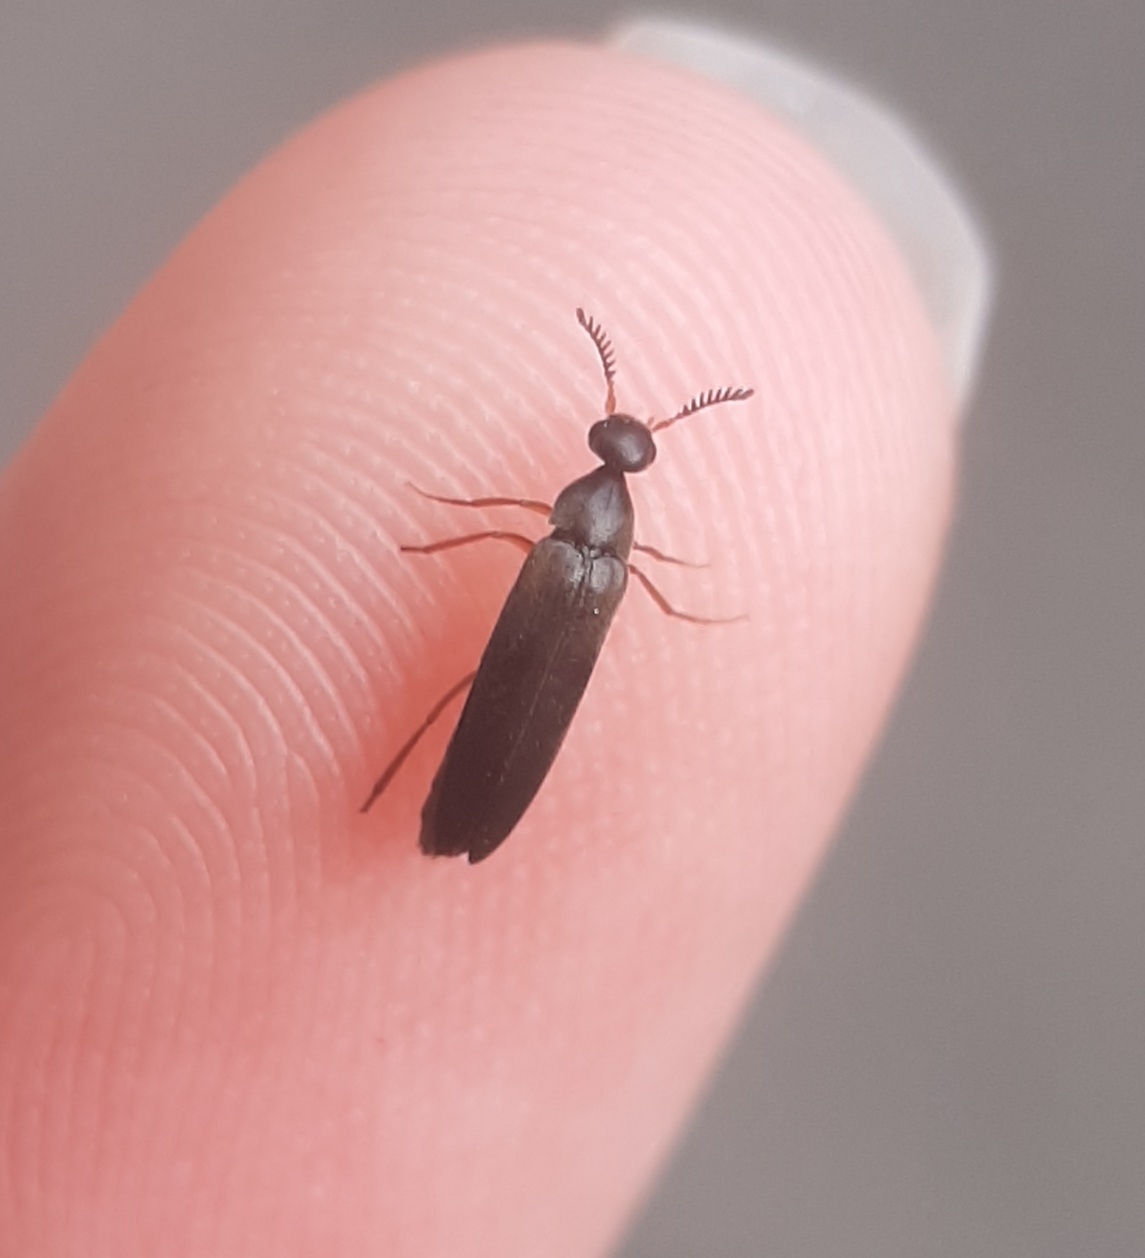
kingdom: Animalia
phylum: Arthropoda
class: Insecta
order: Coleoptera
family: Ripiphoridae
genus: Pelecotoma
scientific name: Pelecotoma flavipes
